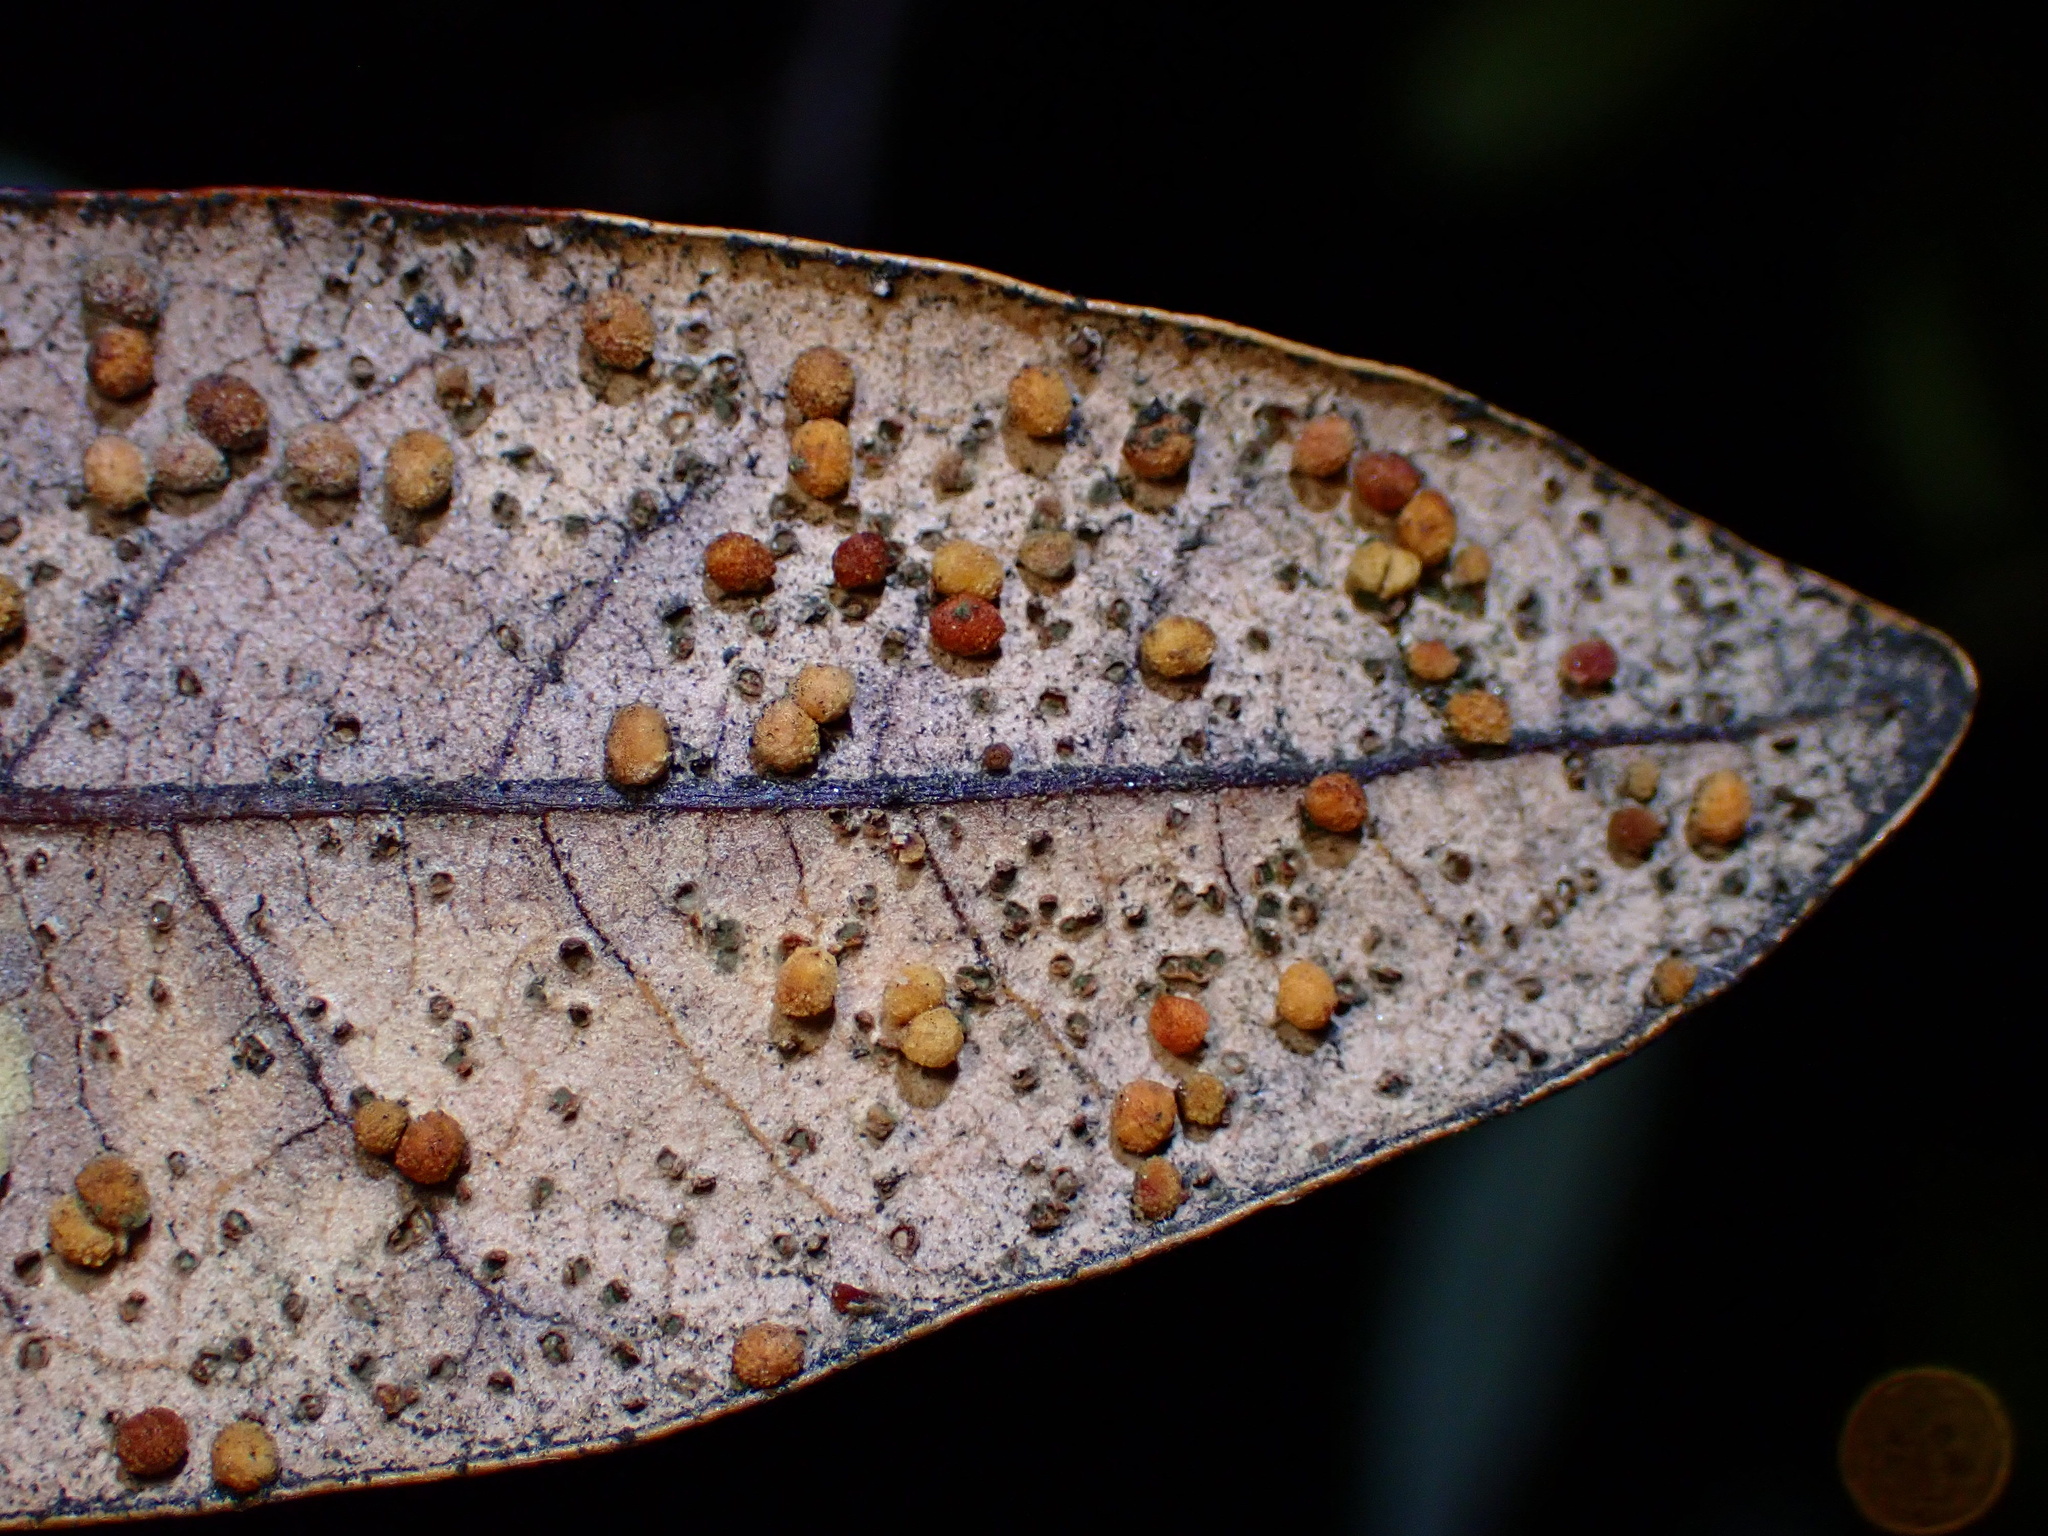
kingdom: Animalia
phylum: Arthropoda
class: Insecta
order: Hymenoptera
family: Cynipidae
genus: Neuroterus
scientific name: Neuroterus saltarius
